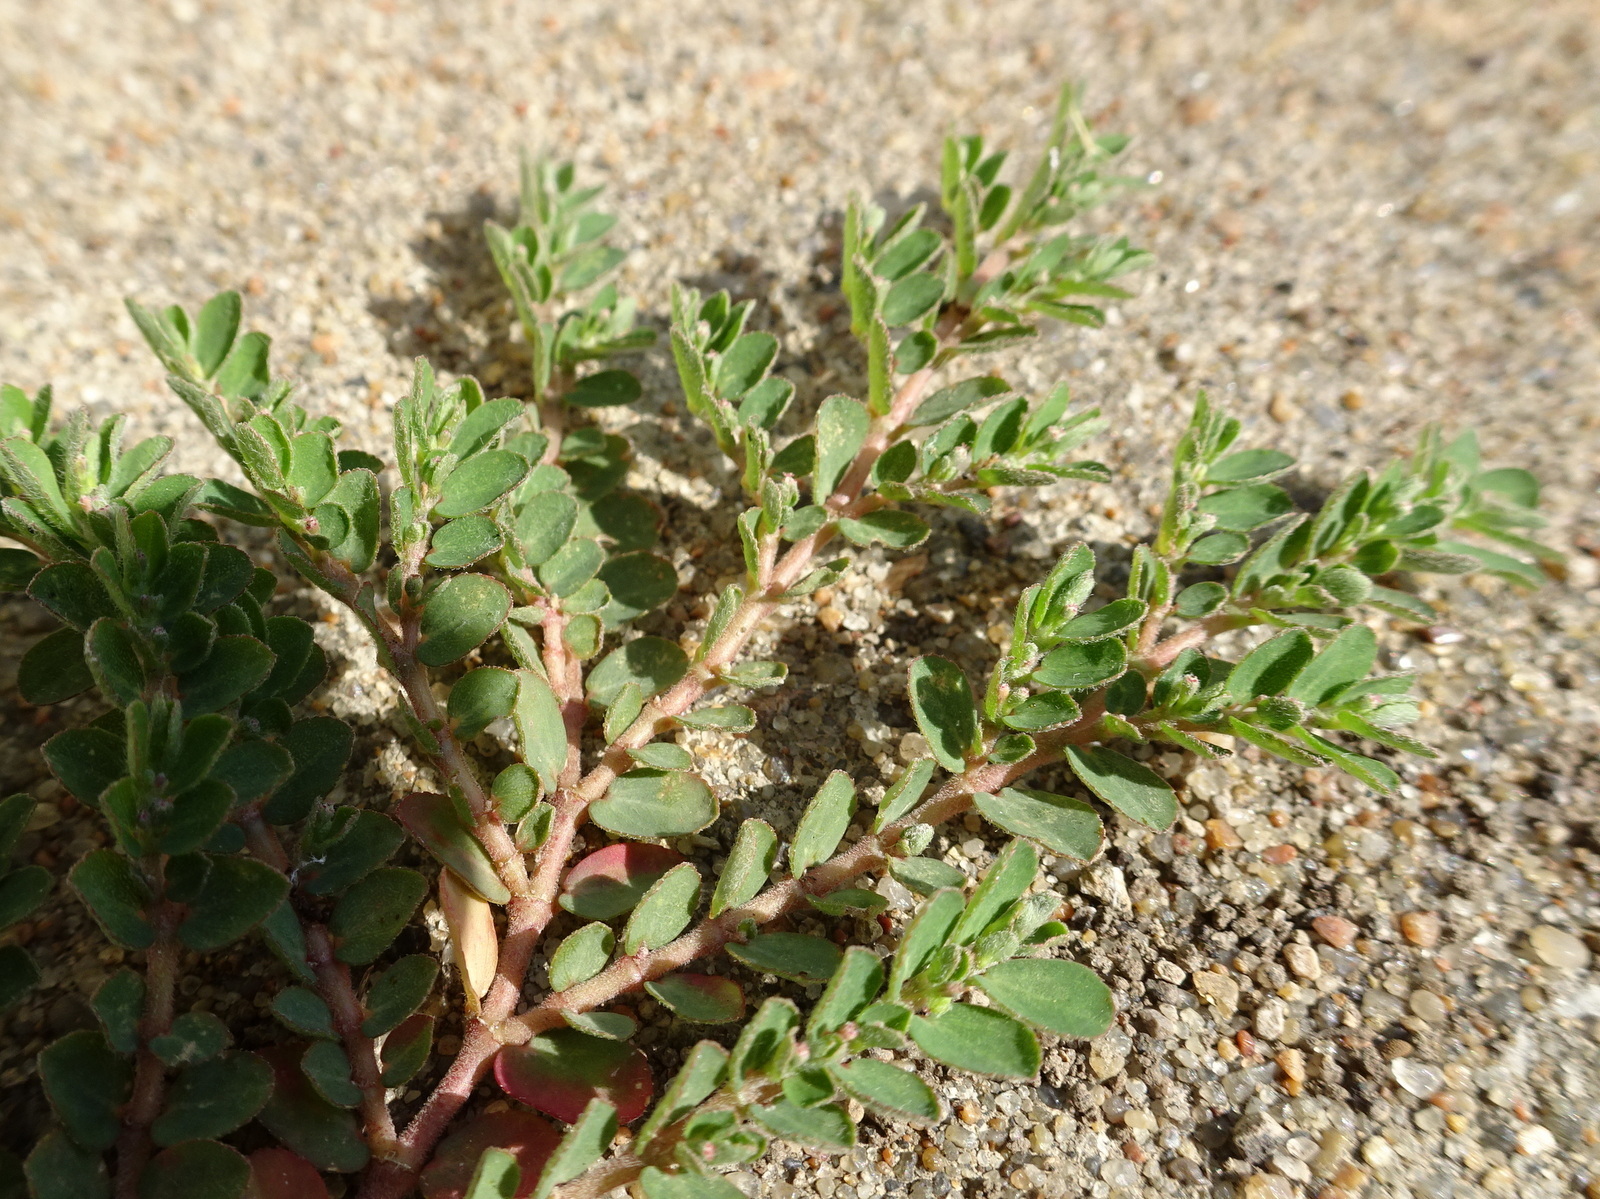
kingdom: Plantae
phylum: Tracheophyta
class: Magnoliopsida
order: Malpighiales
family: Euphorbiaceae
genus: Euphorbia
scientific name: Euphorbia prostrata
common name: Prostrate sandmat
